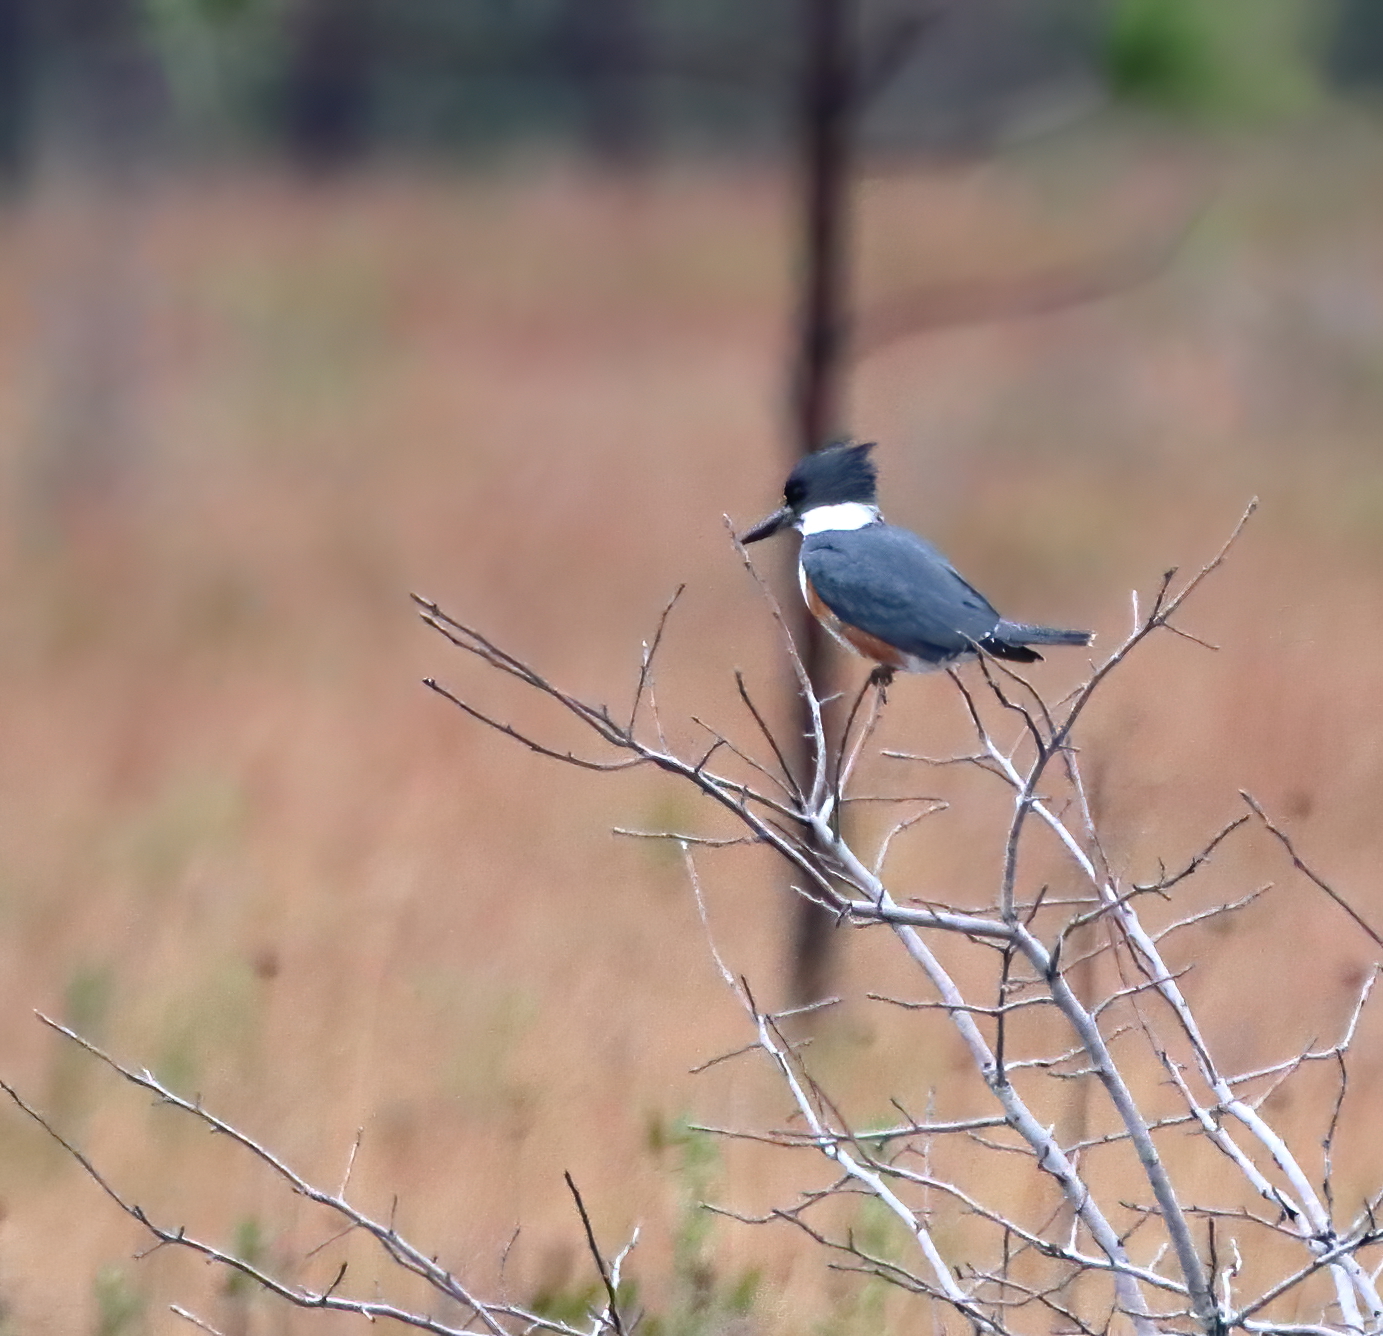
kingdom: Animalia
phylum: Chordata
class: Aves
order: Coraciiformes
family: Alcedinidae
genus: Megaceryle
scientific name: Megaceryle alcyon
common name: Belted kingfisher
